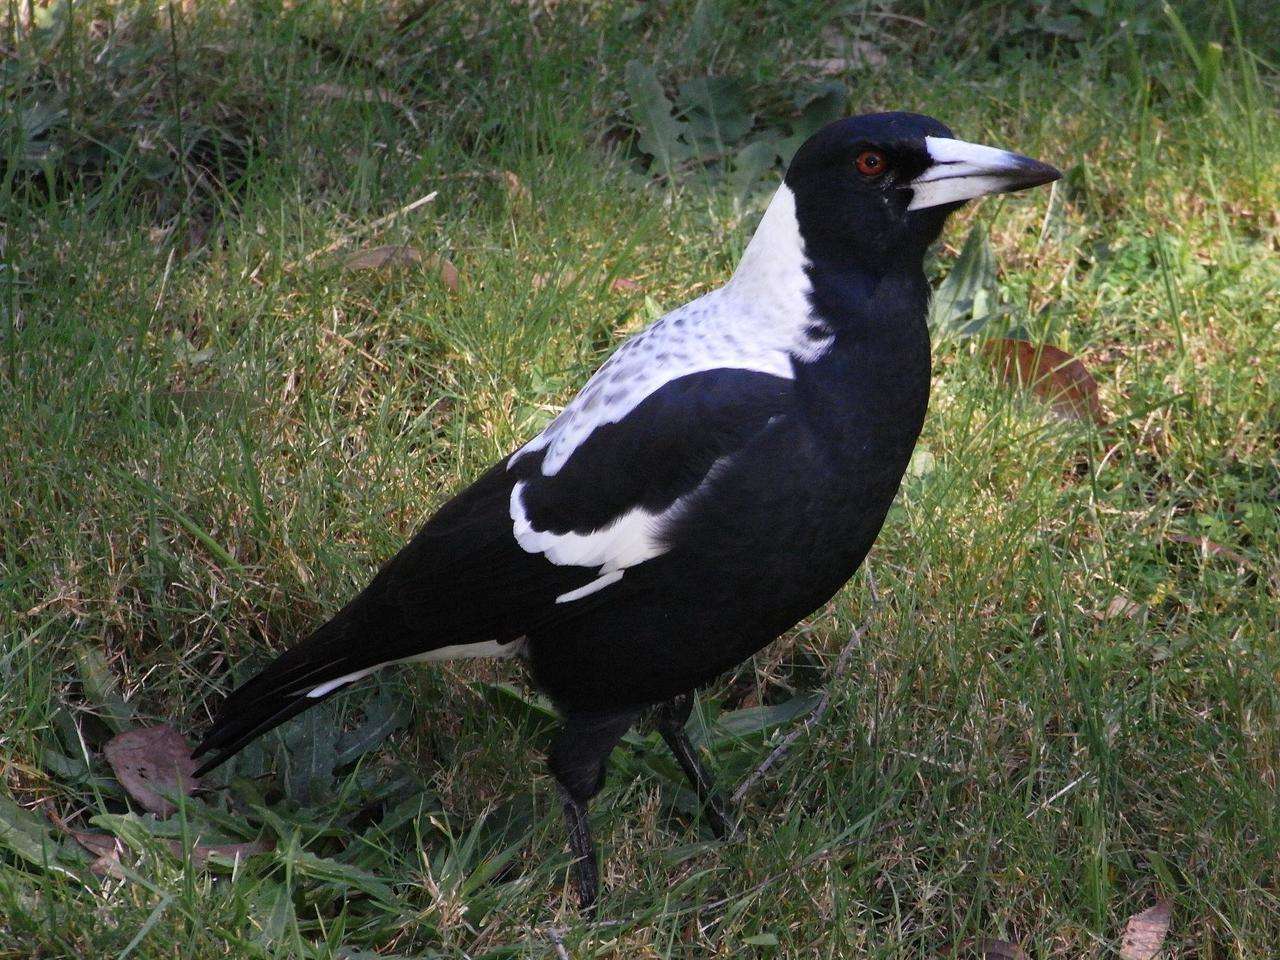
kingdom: Animalia
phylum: Chordata
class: Aves
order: Passeriformes
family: Cracticidae
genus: Gymnorhina
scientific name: Gymnorhina tibicen
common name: Australian magpie
